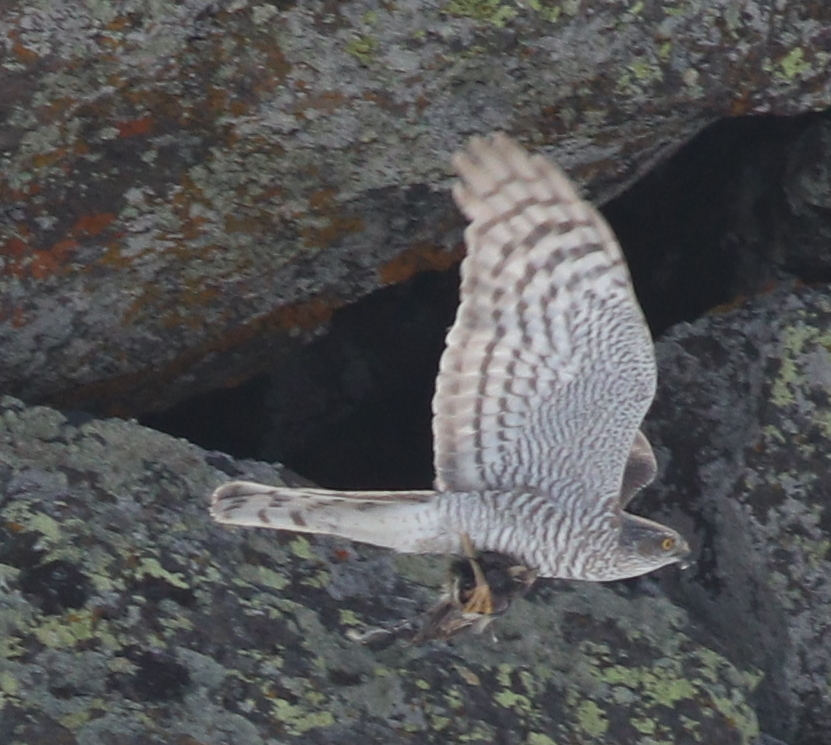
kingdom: Animalia
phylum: Chordata
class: Aves
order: Accipitriformes
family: Accipitridae
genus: Accipiter
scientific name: Accipiter nisus
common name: Eurasian sparrowhawk
